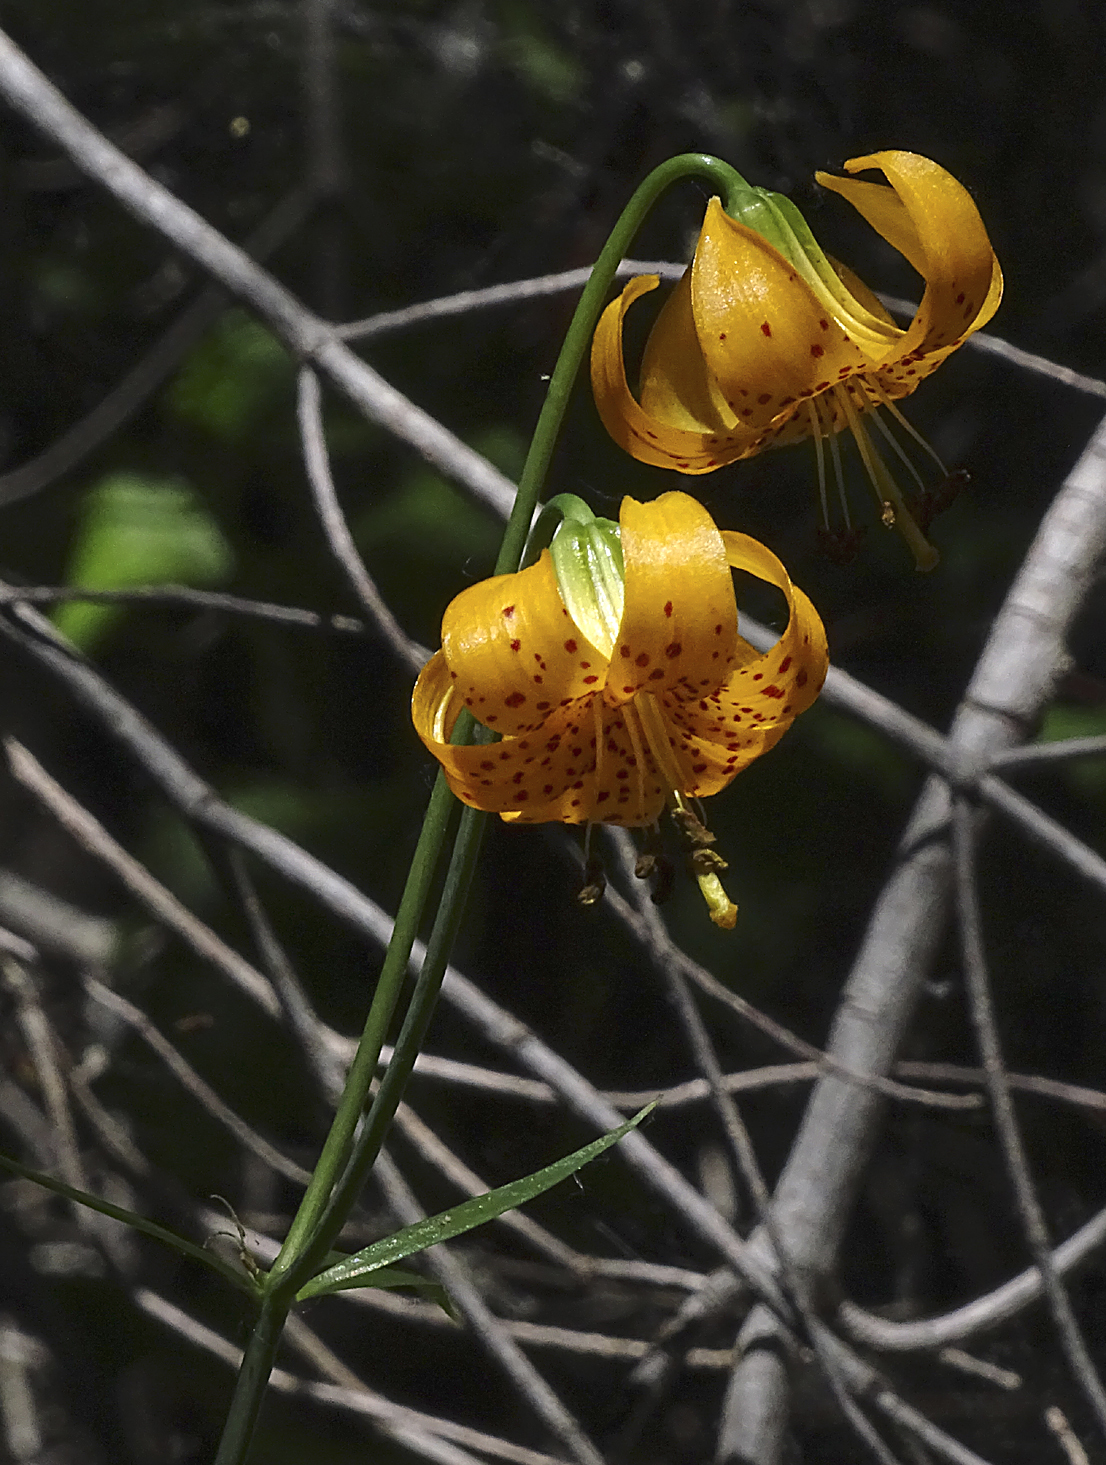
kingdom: Plantae
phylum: Tracheophyta
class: Liliopsida
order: Liliales
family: Liliaceae
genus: Lilium
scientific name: Lilium kelleyanum
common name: Kelley's lily
